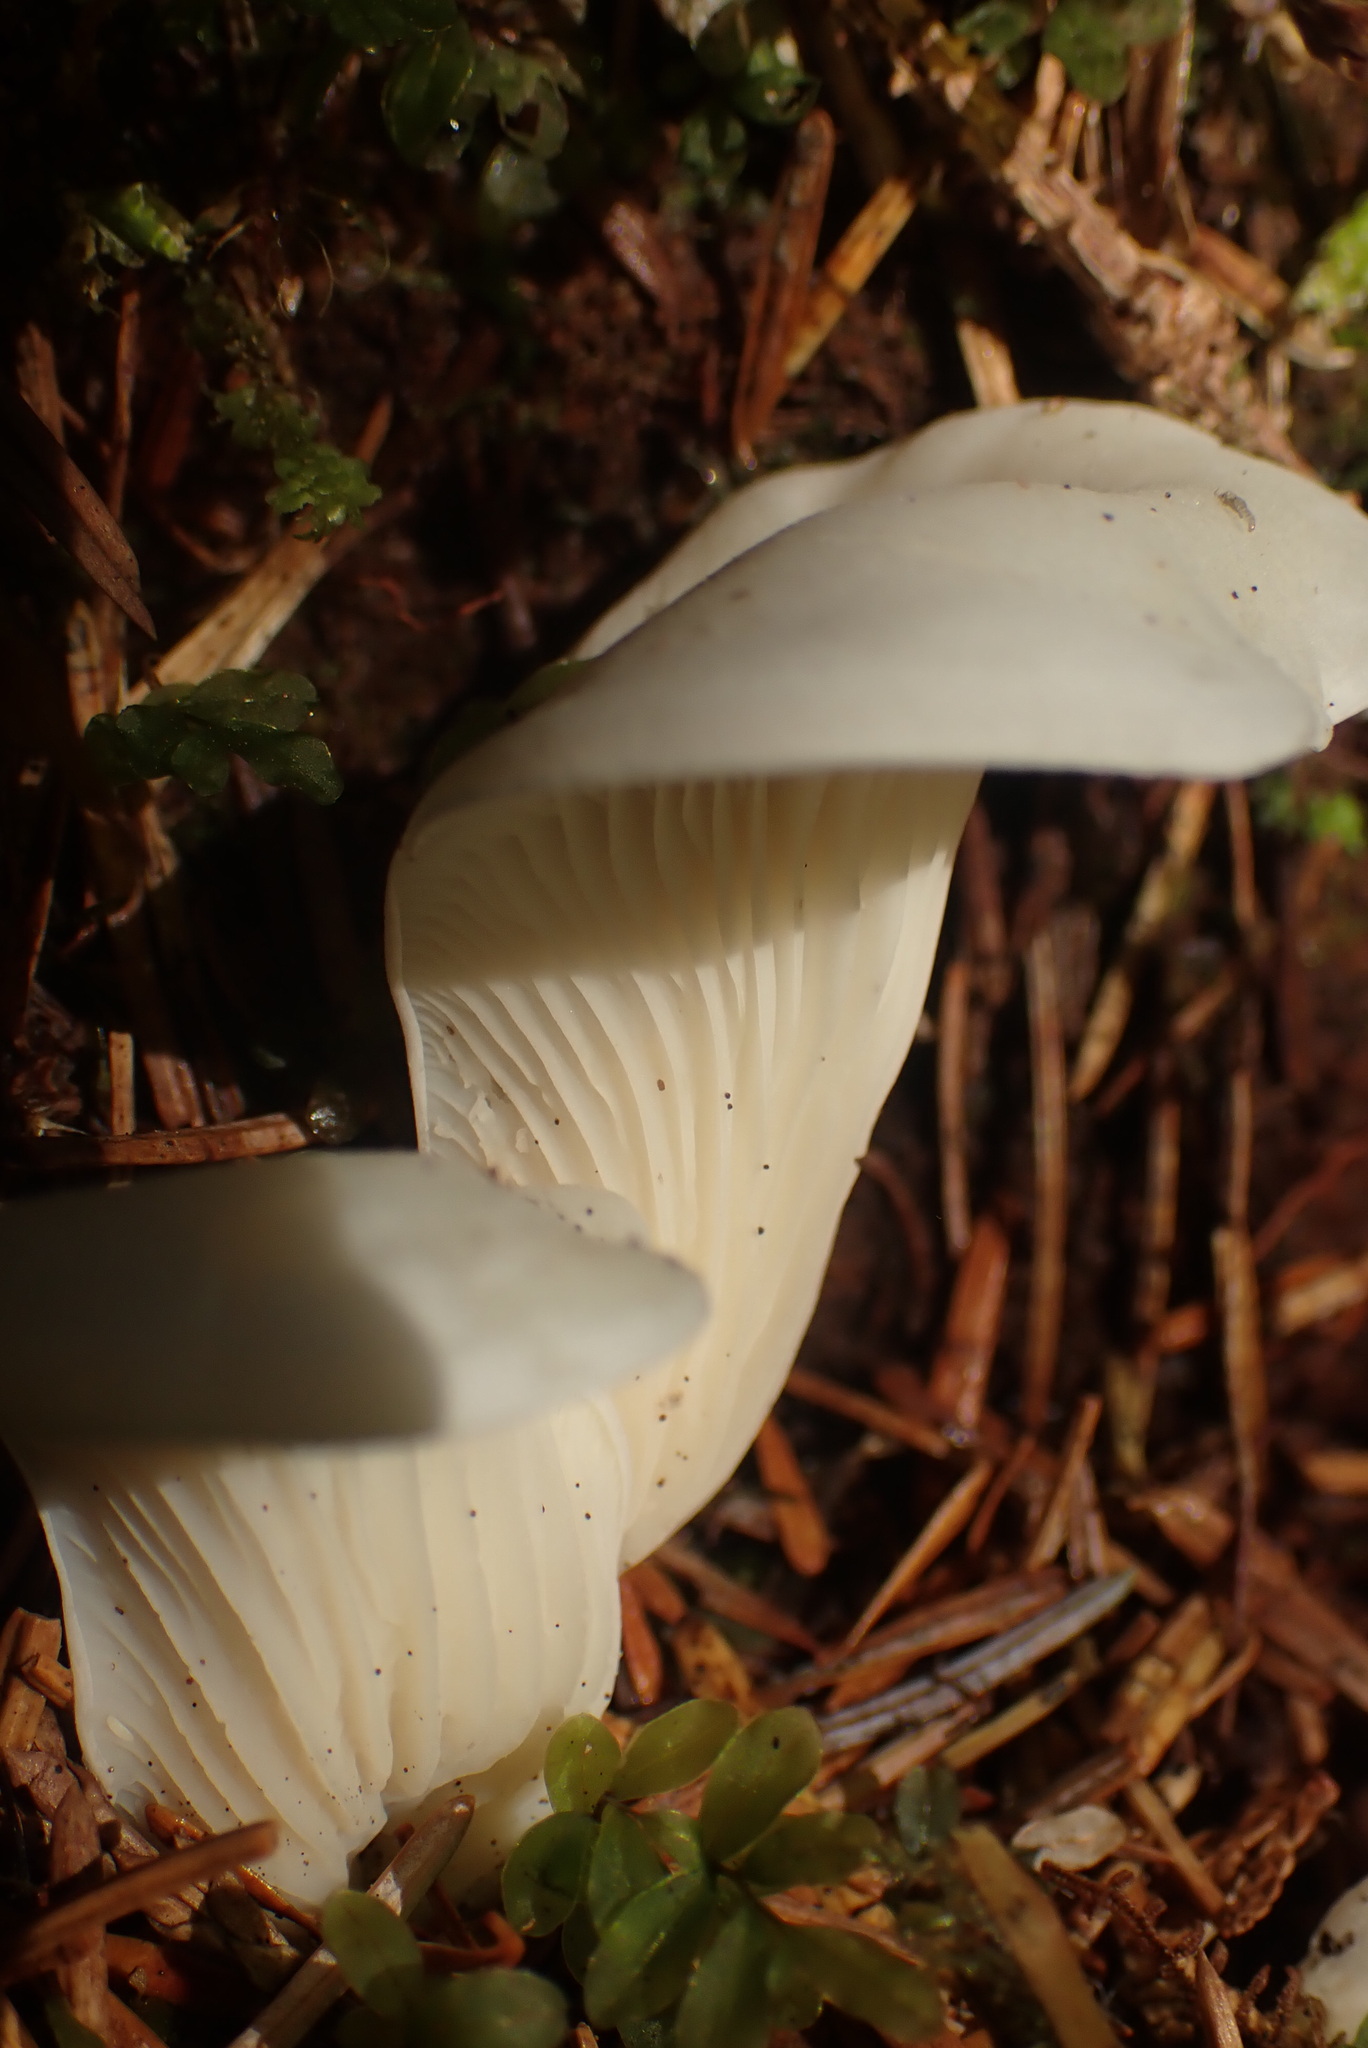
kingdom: Fungi
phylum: Basidiomycota
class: Agaricomycetes
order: Agaricales
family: Marasmiaceae
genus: Pleurocybella
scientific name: Pleurocybella porrigens
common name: Angel's wings
